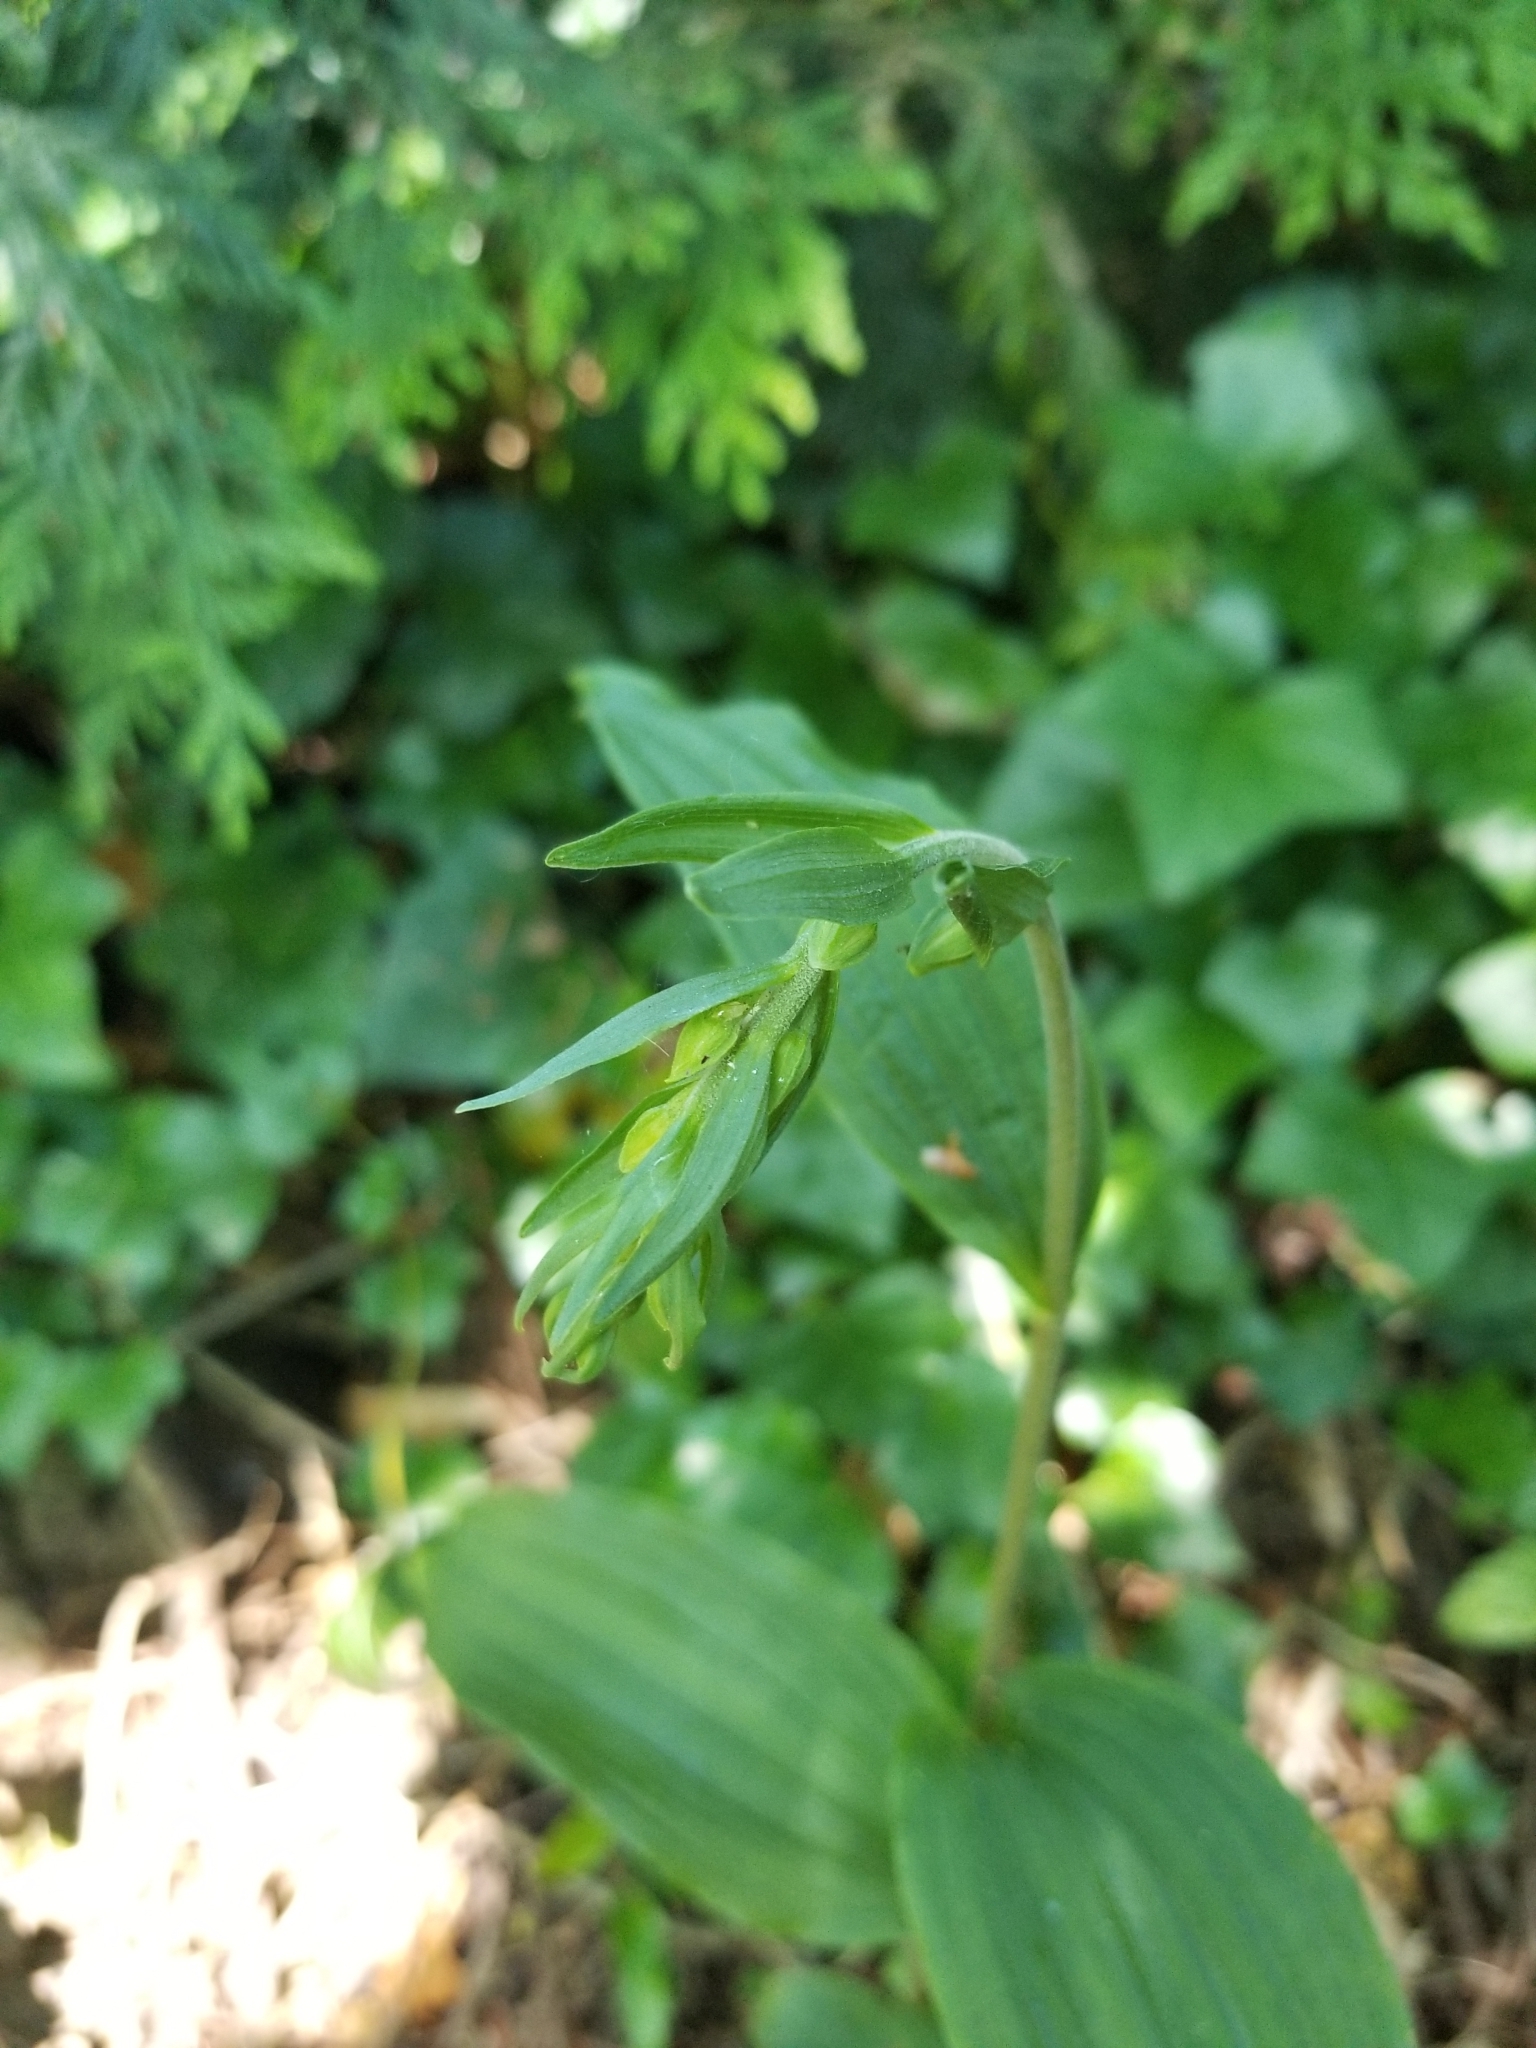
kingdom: Plantae
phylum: Tracheophyta
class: Liliopsida
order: Asparagales
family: Orchidaceae
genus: Epipactis
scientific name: Epipactis helleborine
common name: Broad-leaved helleborine
